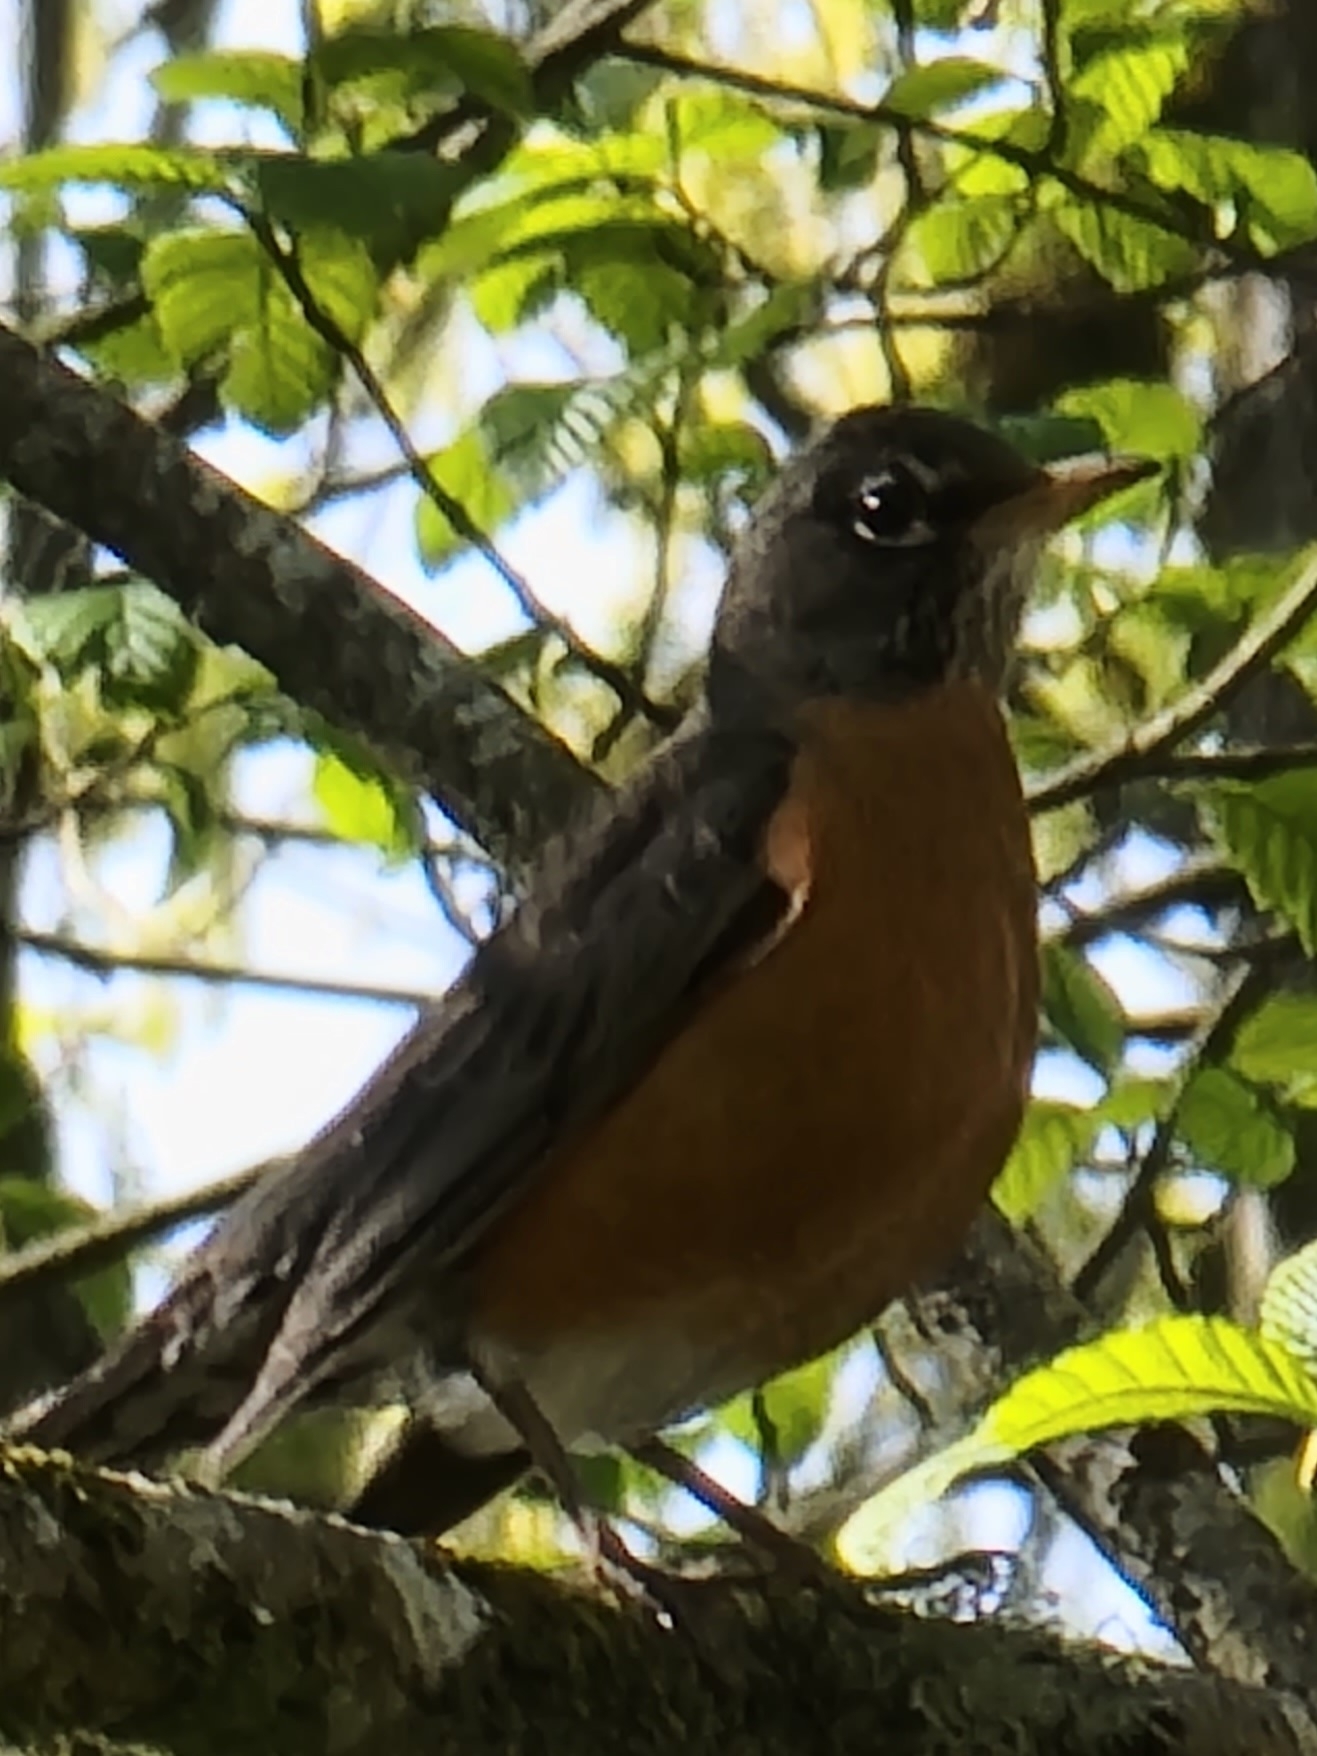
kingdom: Animalia
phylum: Chordata
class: Aves
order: Passeriformes
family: Turdidae
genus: Turdus
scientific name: Turdus migratorius
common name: American robin
